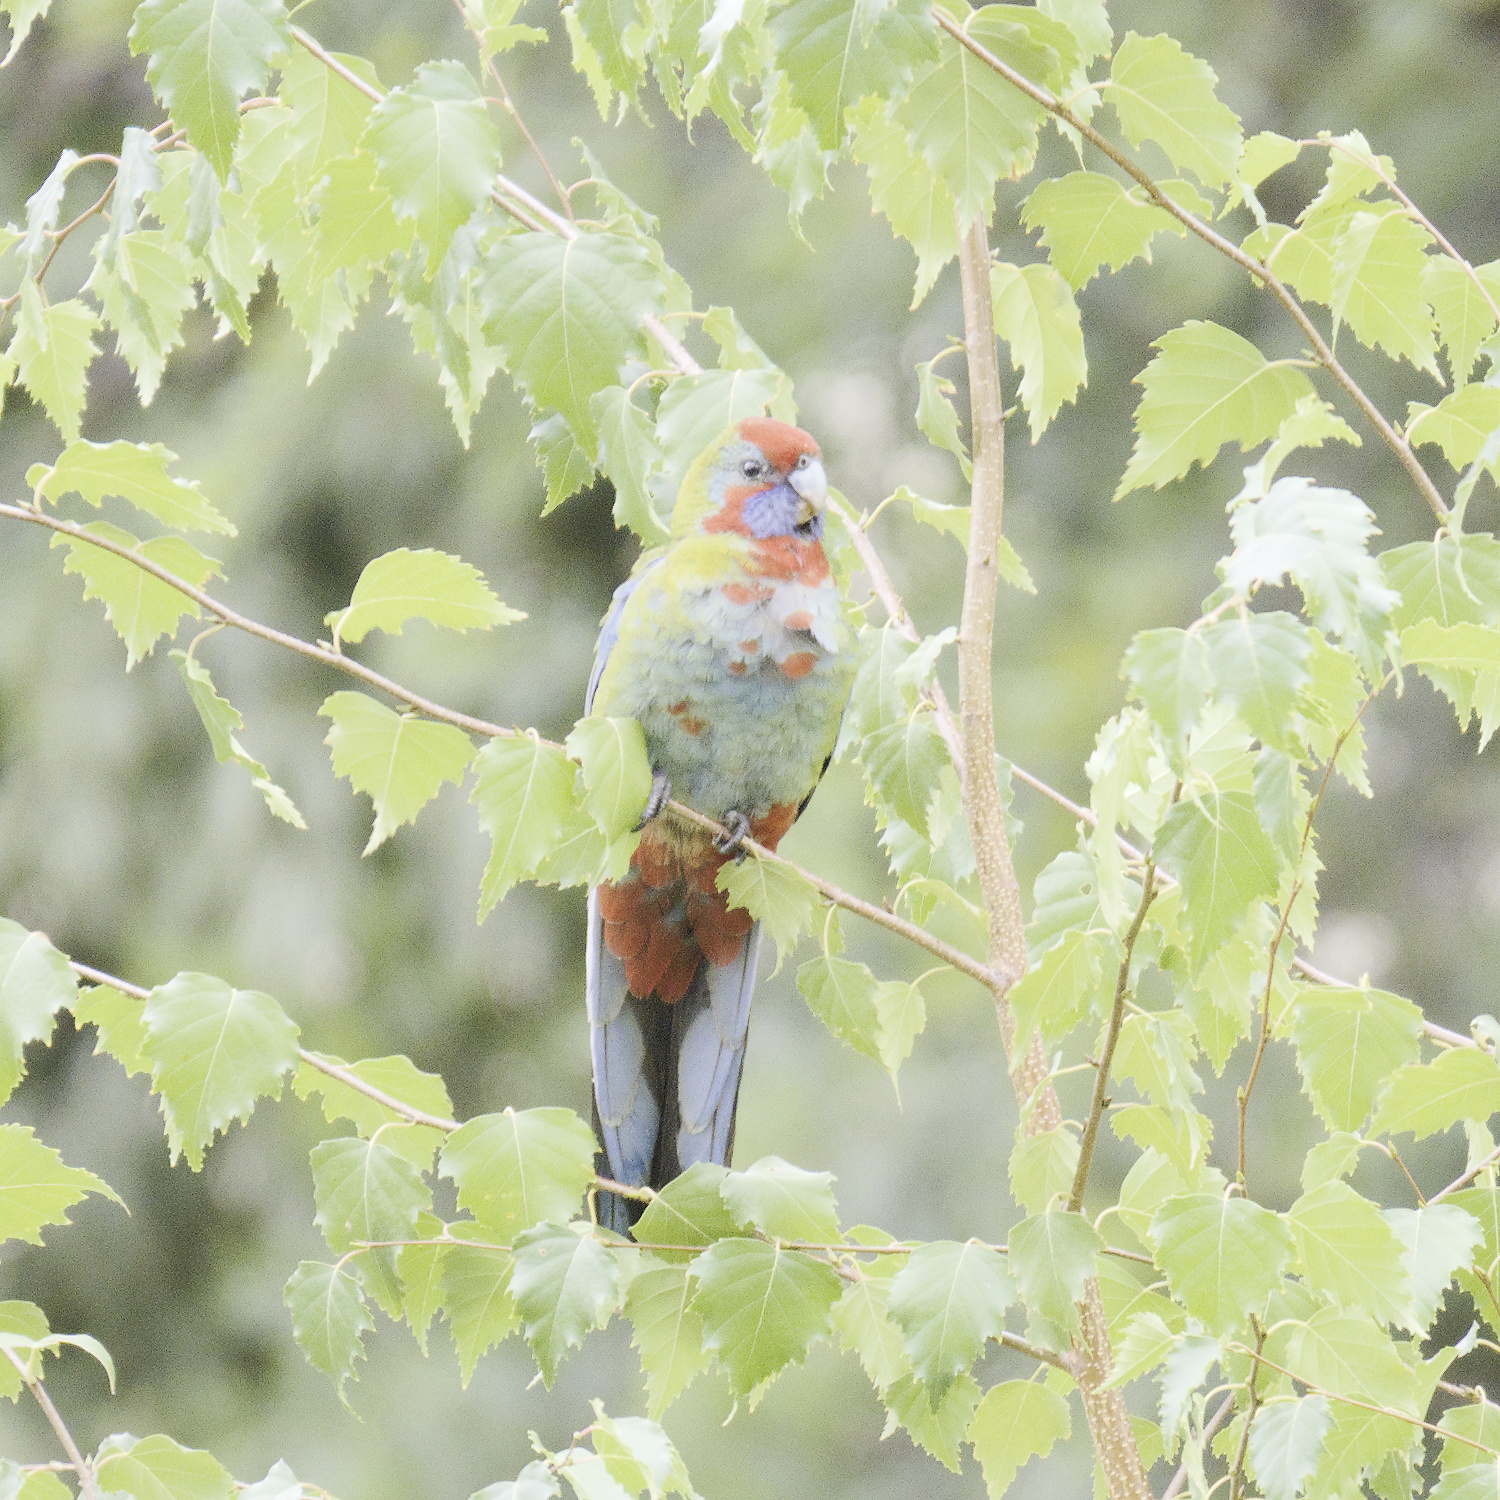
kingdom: Animalia
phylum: Chordata
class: Aves
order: Psittaciformes
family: Psittacidae
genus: Platycercus
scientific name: Platycercus elegans
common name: Crimson rosella
